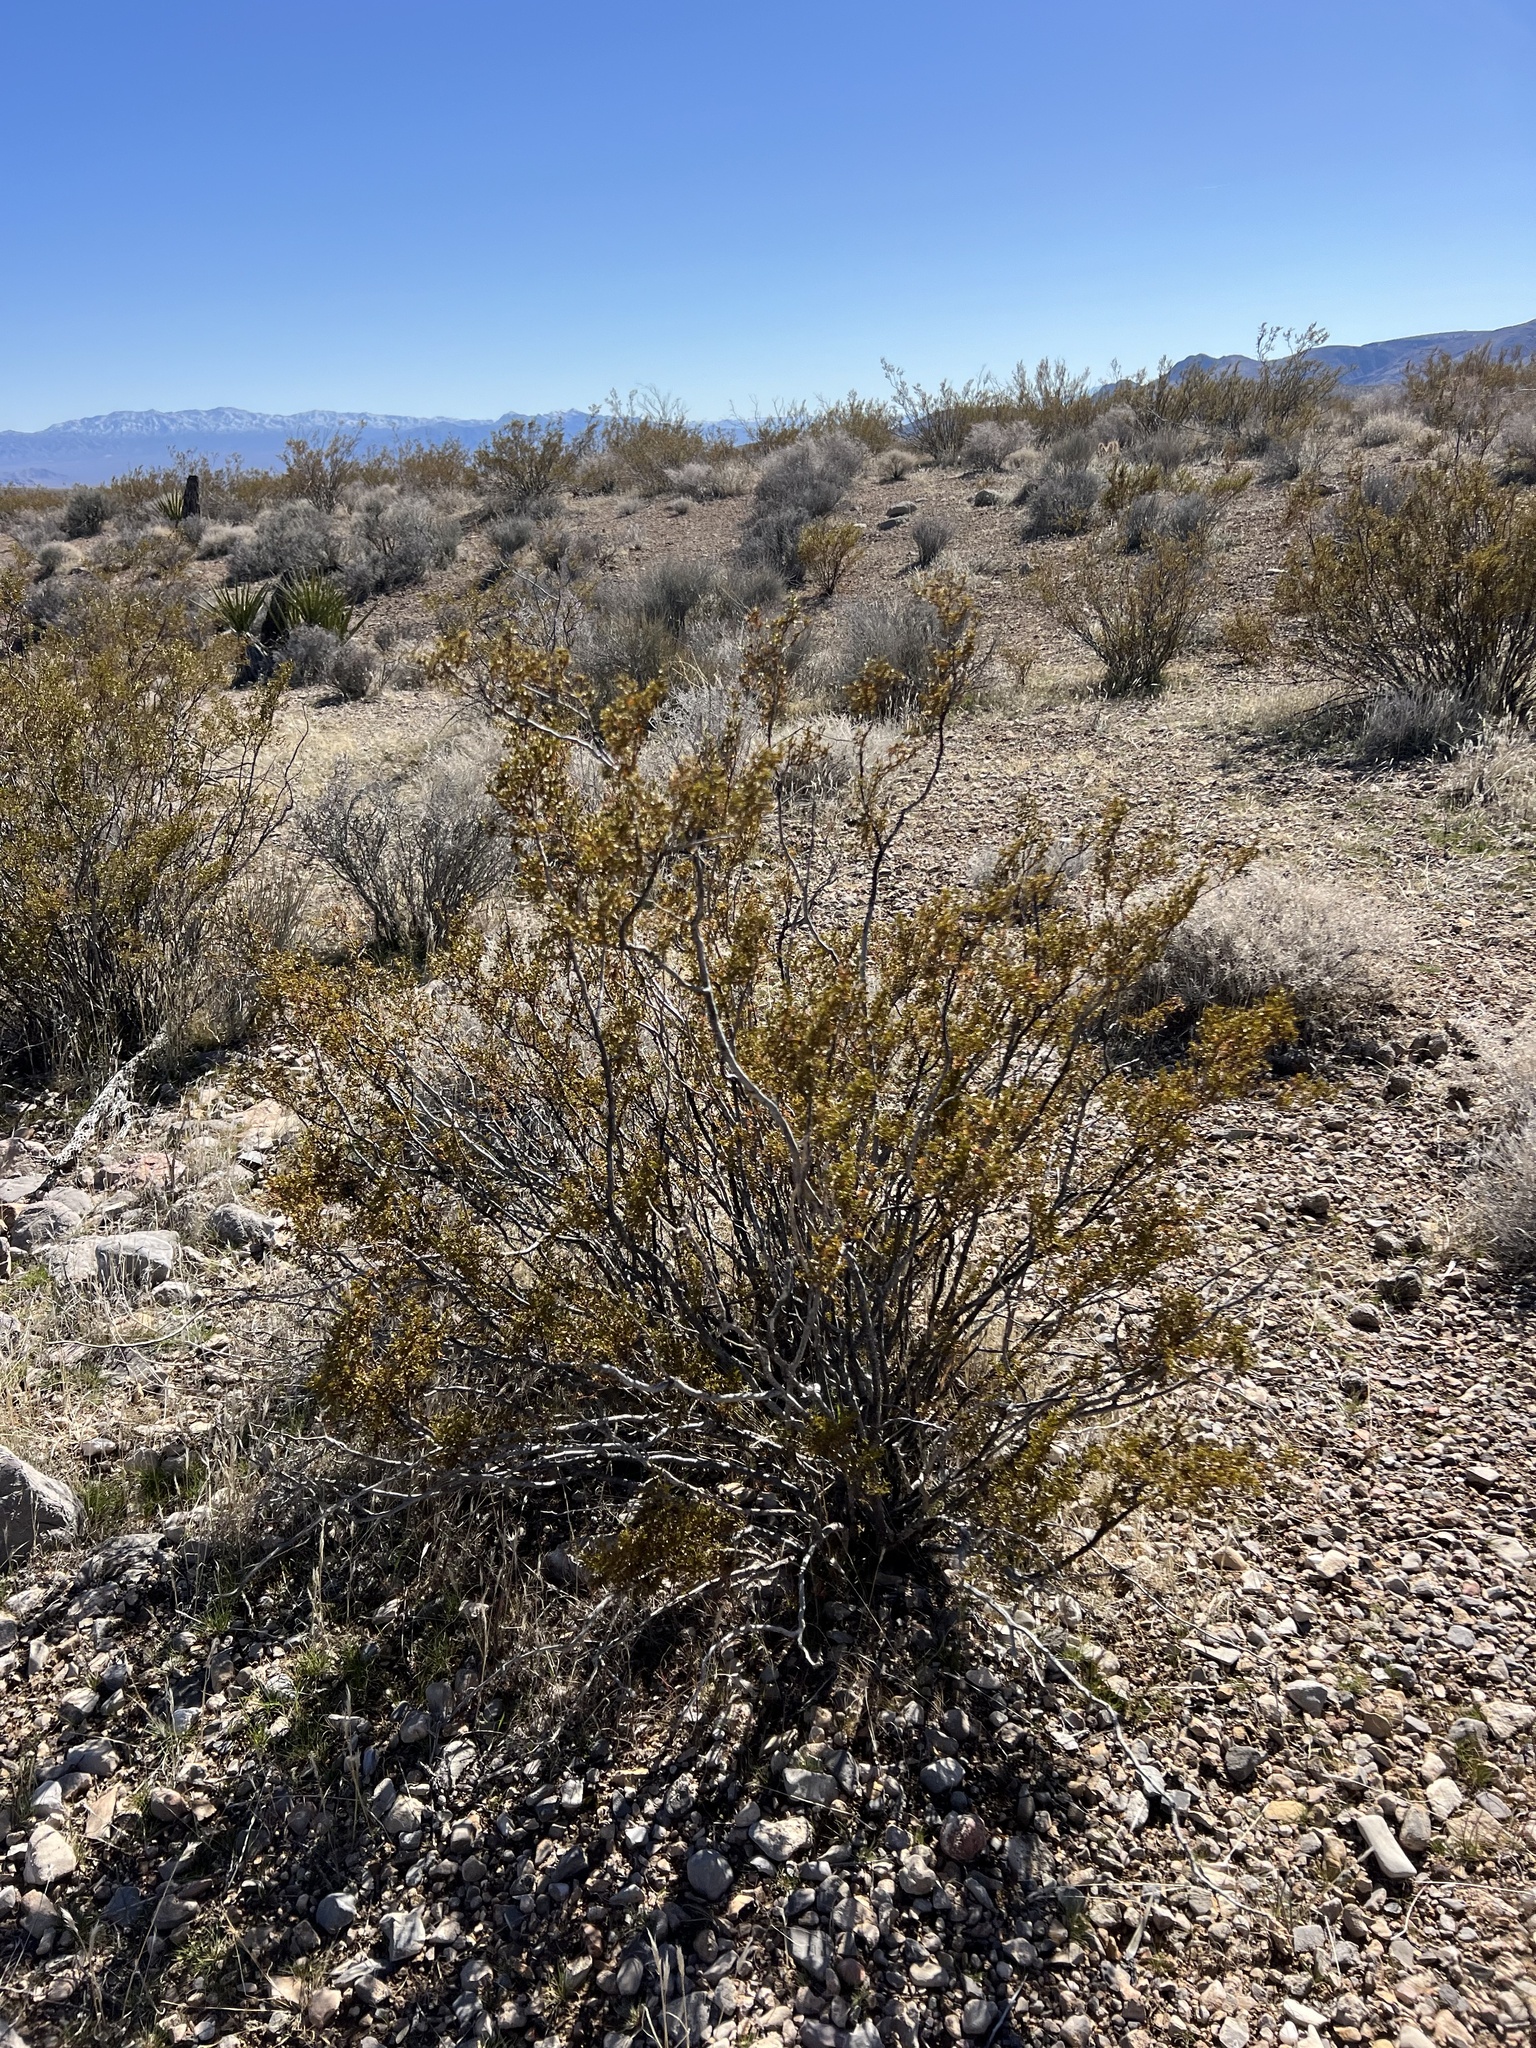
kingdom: Plantae
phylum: Tracheophyta
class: Magnoliopsida
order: Zygophyllales
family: Zygophyllaceae
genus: Larrea
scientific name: Larrea tridentata
